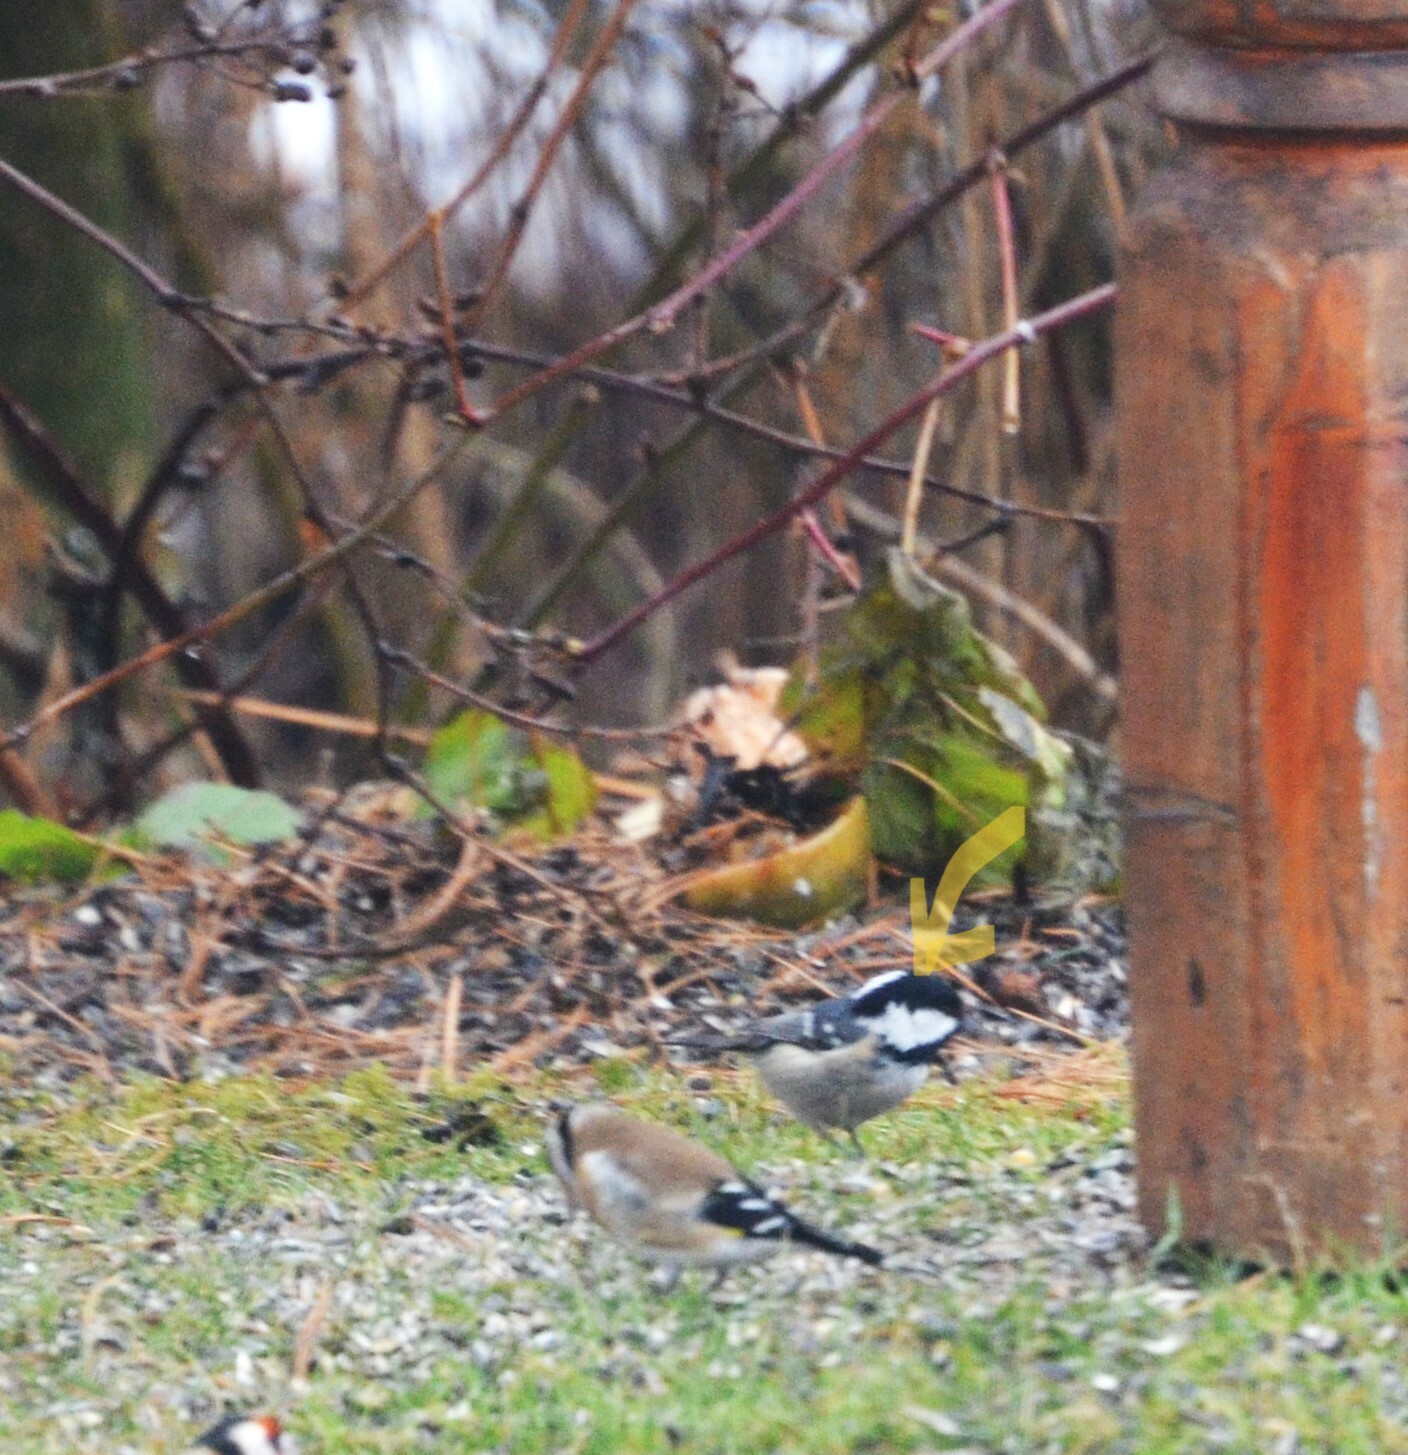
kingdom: Animalia
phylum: Chordata
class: Aves
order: Passeriformes
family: Paridae
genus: Periparus
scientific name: Periparus ater
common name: Coal tit
